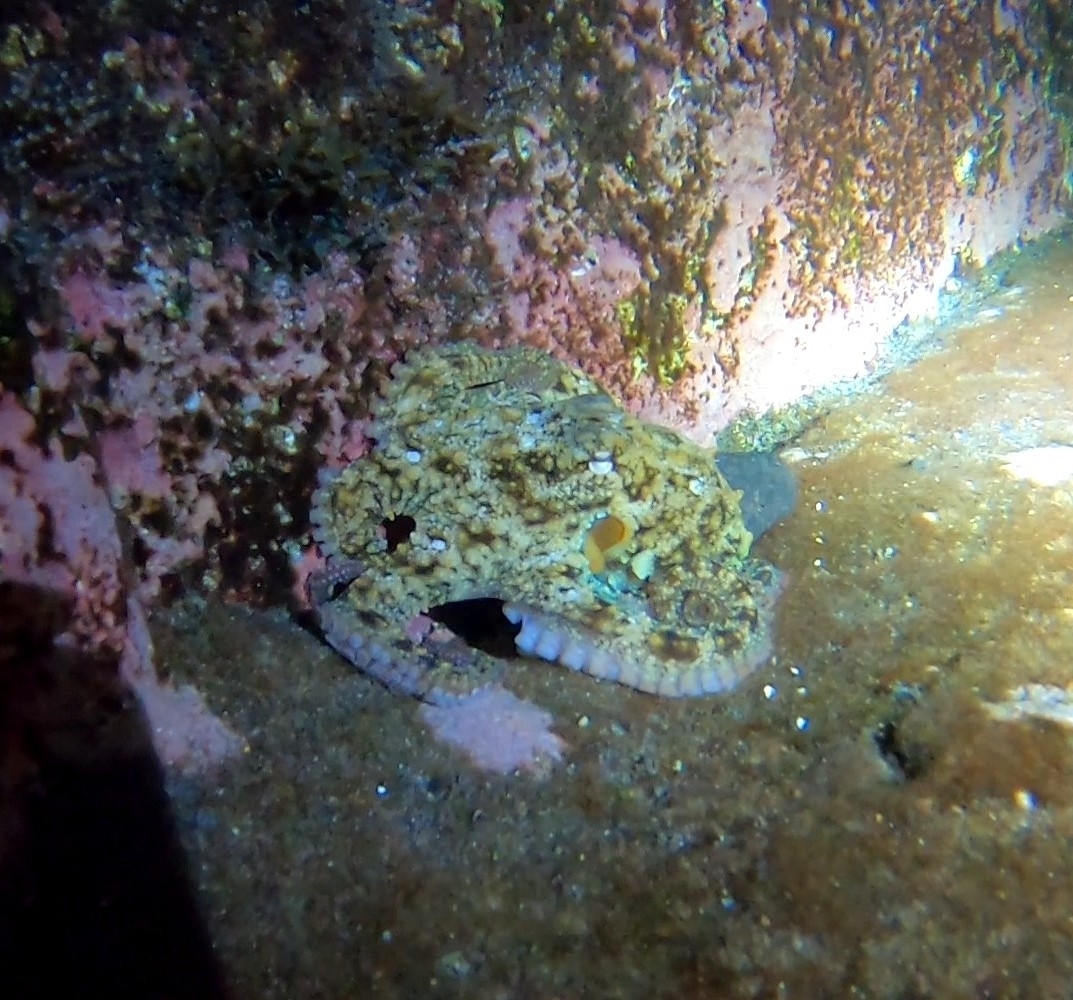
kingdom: Animalia
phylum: Mollusca
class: Cephalopoda
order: Octopoda
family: Octopodidae
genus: Octopus
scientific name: Octopus vulgaris
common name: Common octopus
